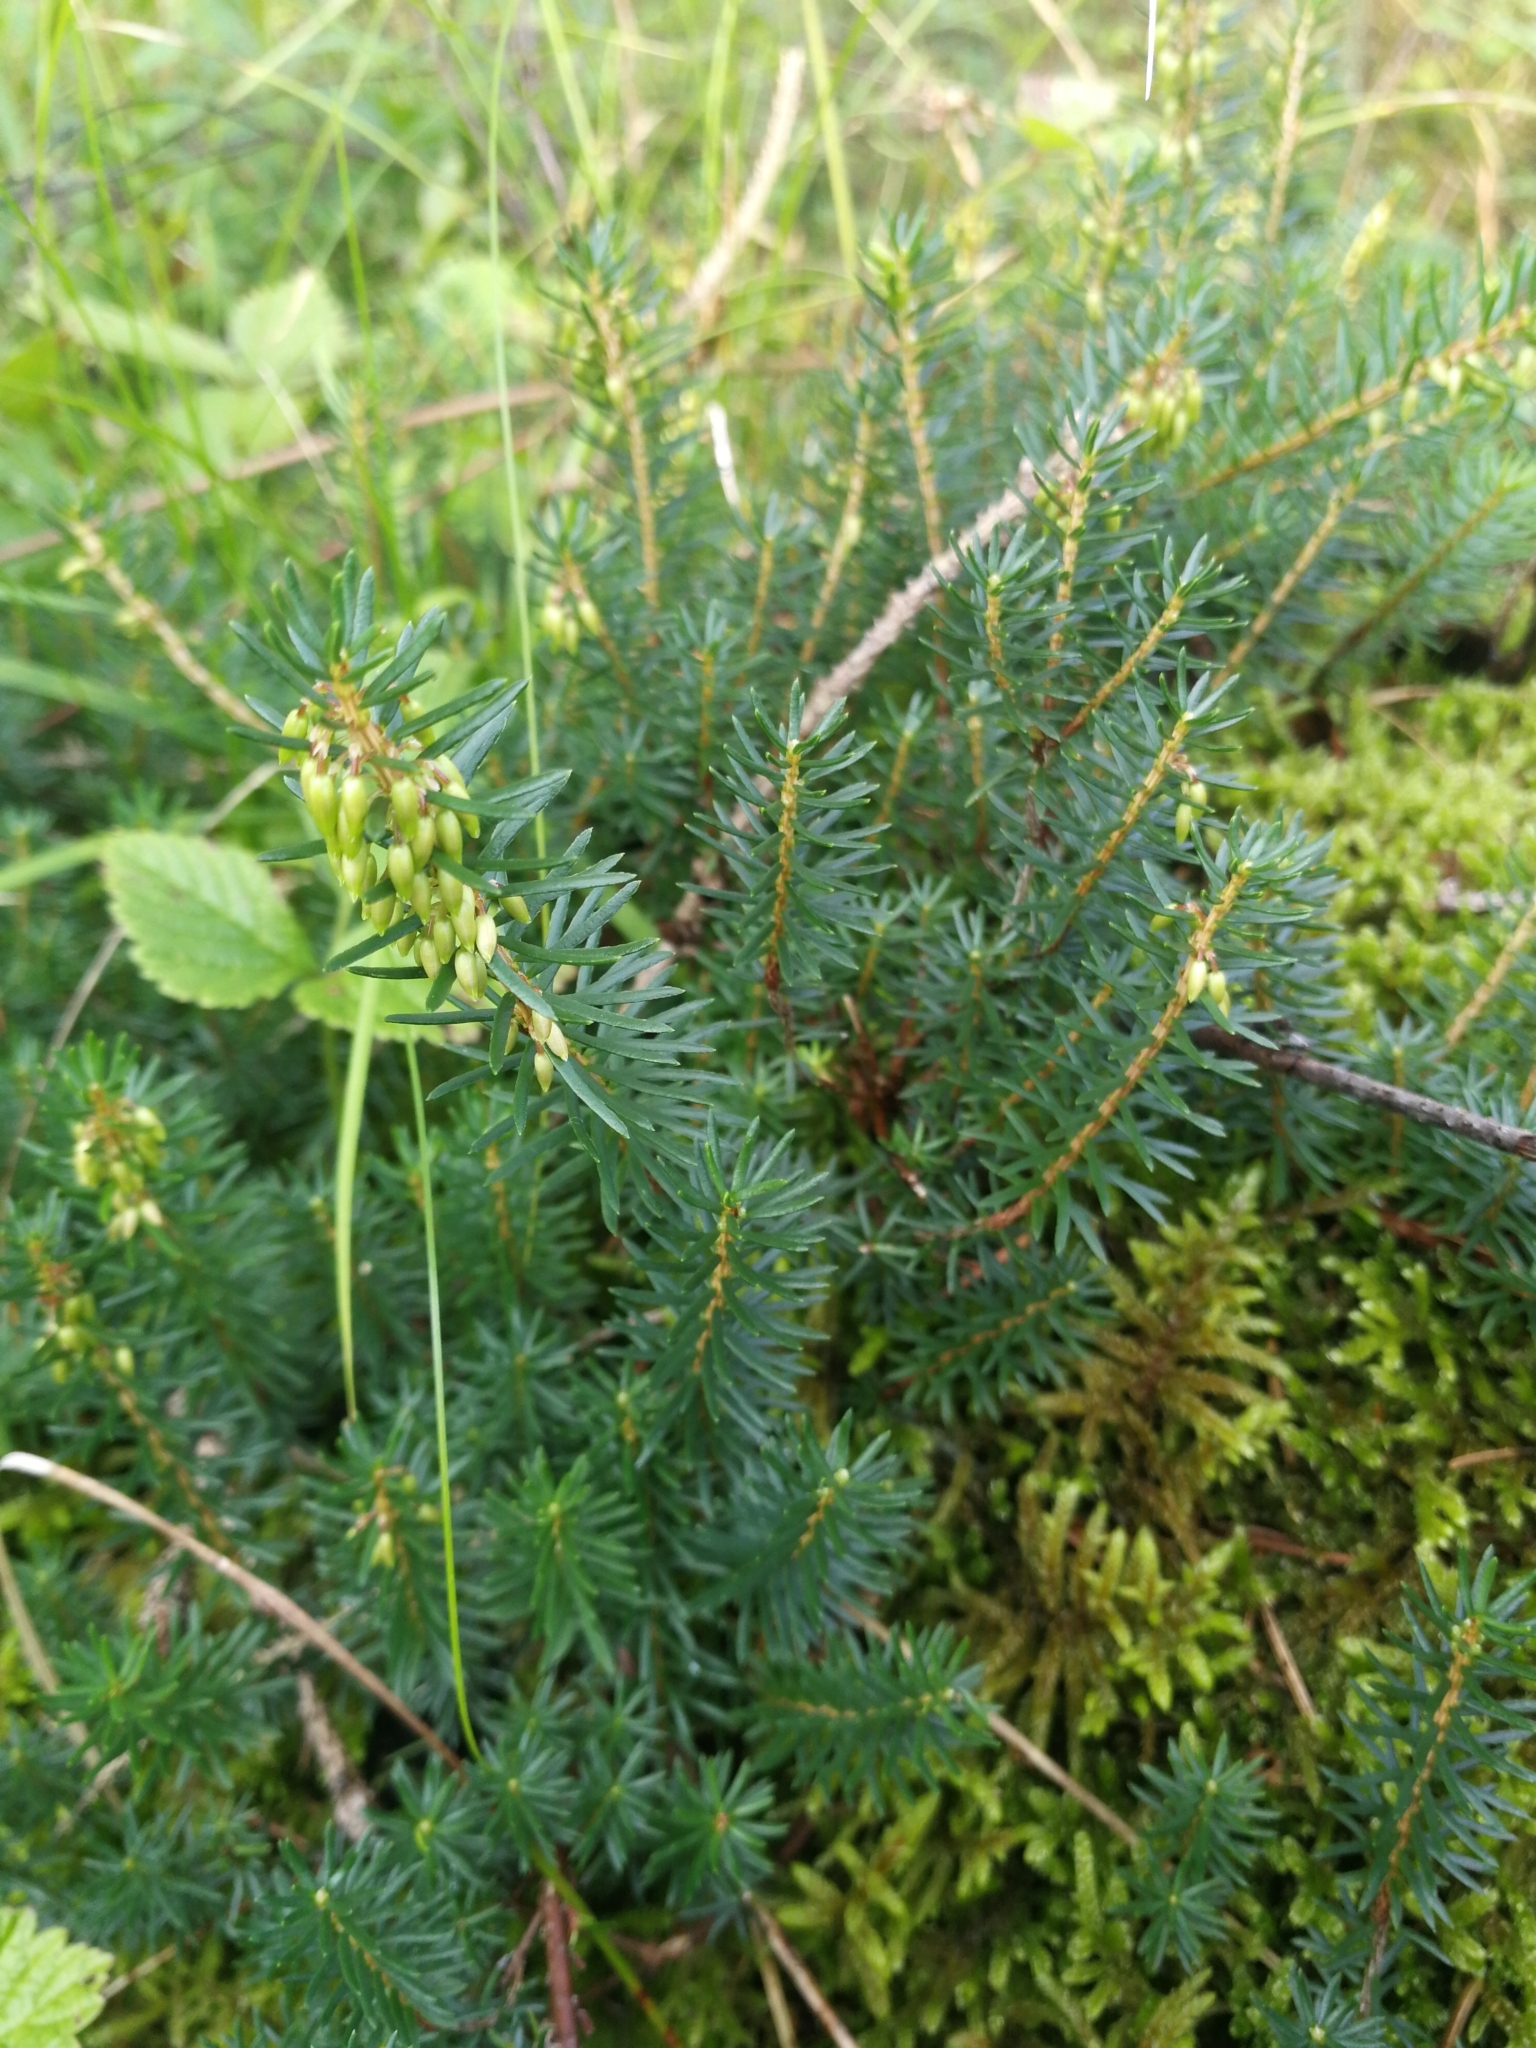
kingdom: Plantae
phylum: Tracheophyta
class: Magnoliopsida
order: Ericales
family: Ericaceae
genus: Erica
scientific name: Erica carnea
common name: Winter heath
